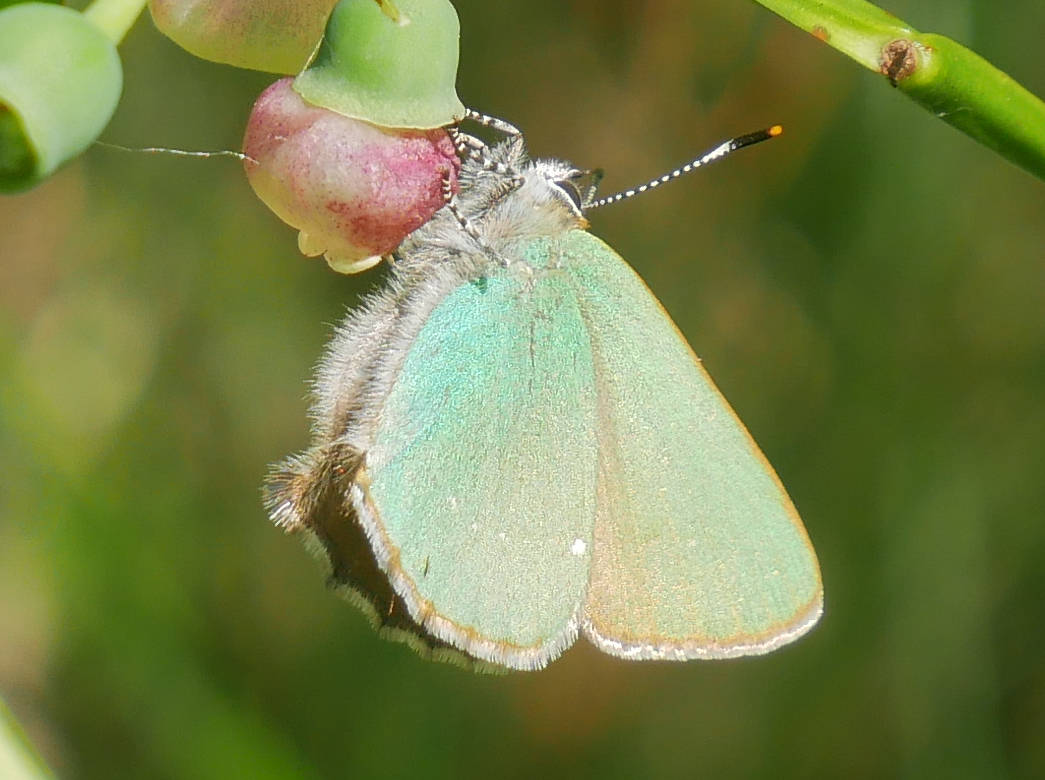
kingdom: Animalia
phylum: Arthropoda
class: Insecta
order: Lepidoptera
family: Lycaenidae
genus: Callophrys
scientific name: Callophrys rubi
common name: Green hairstreak
